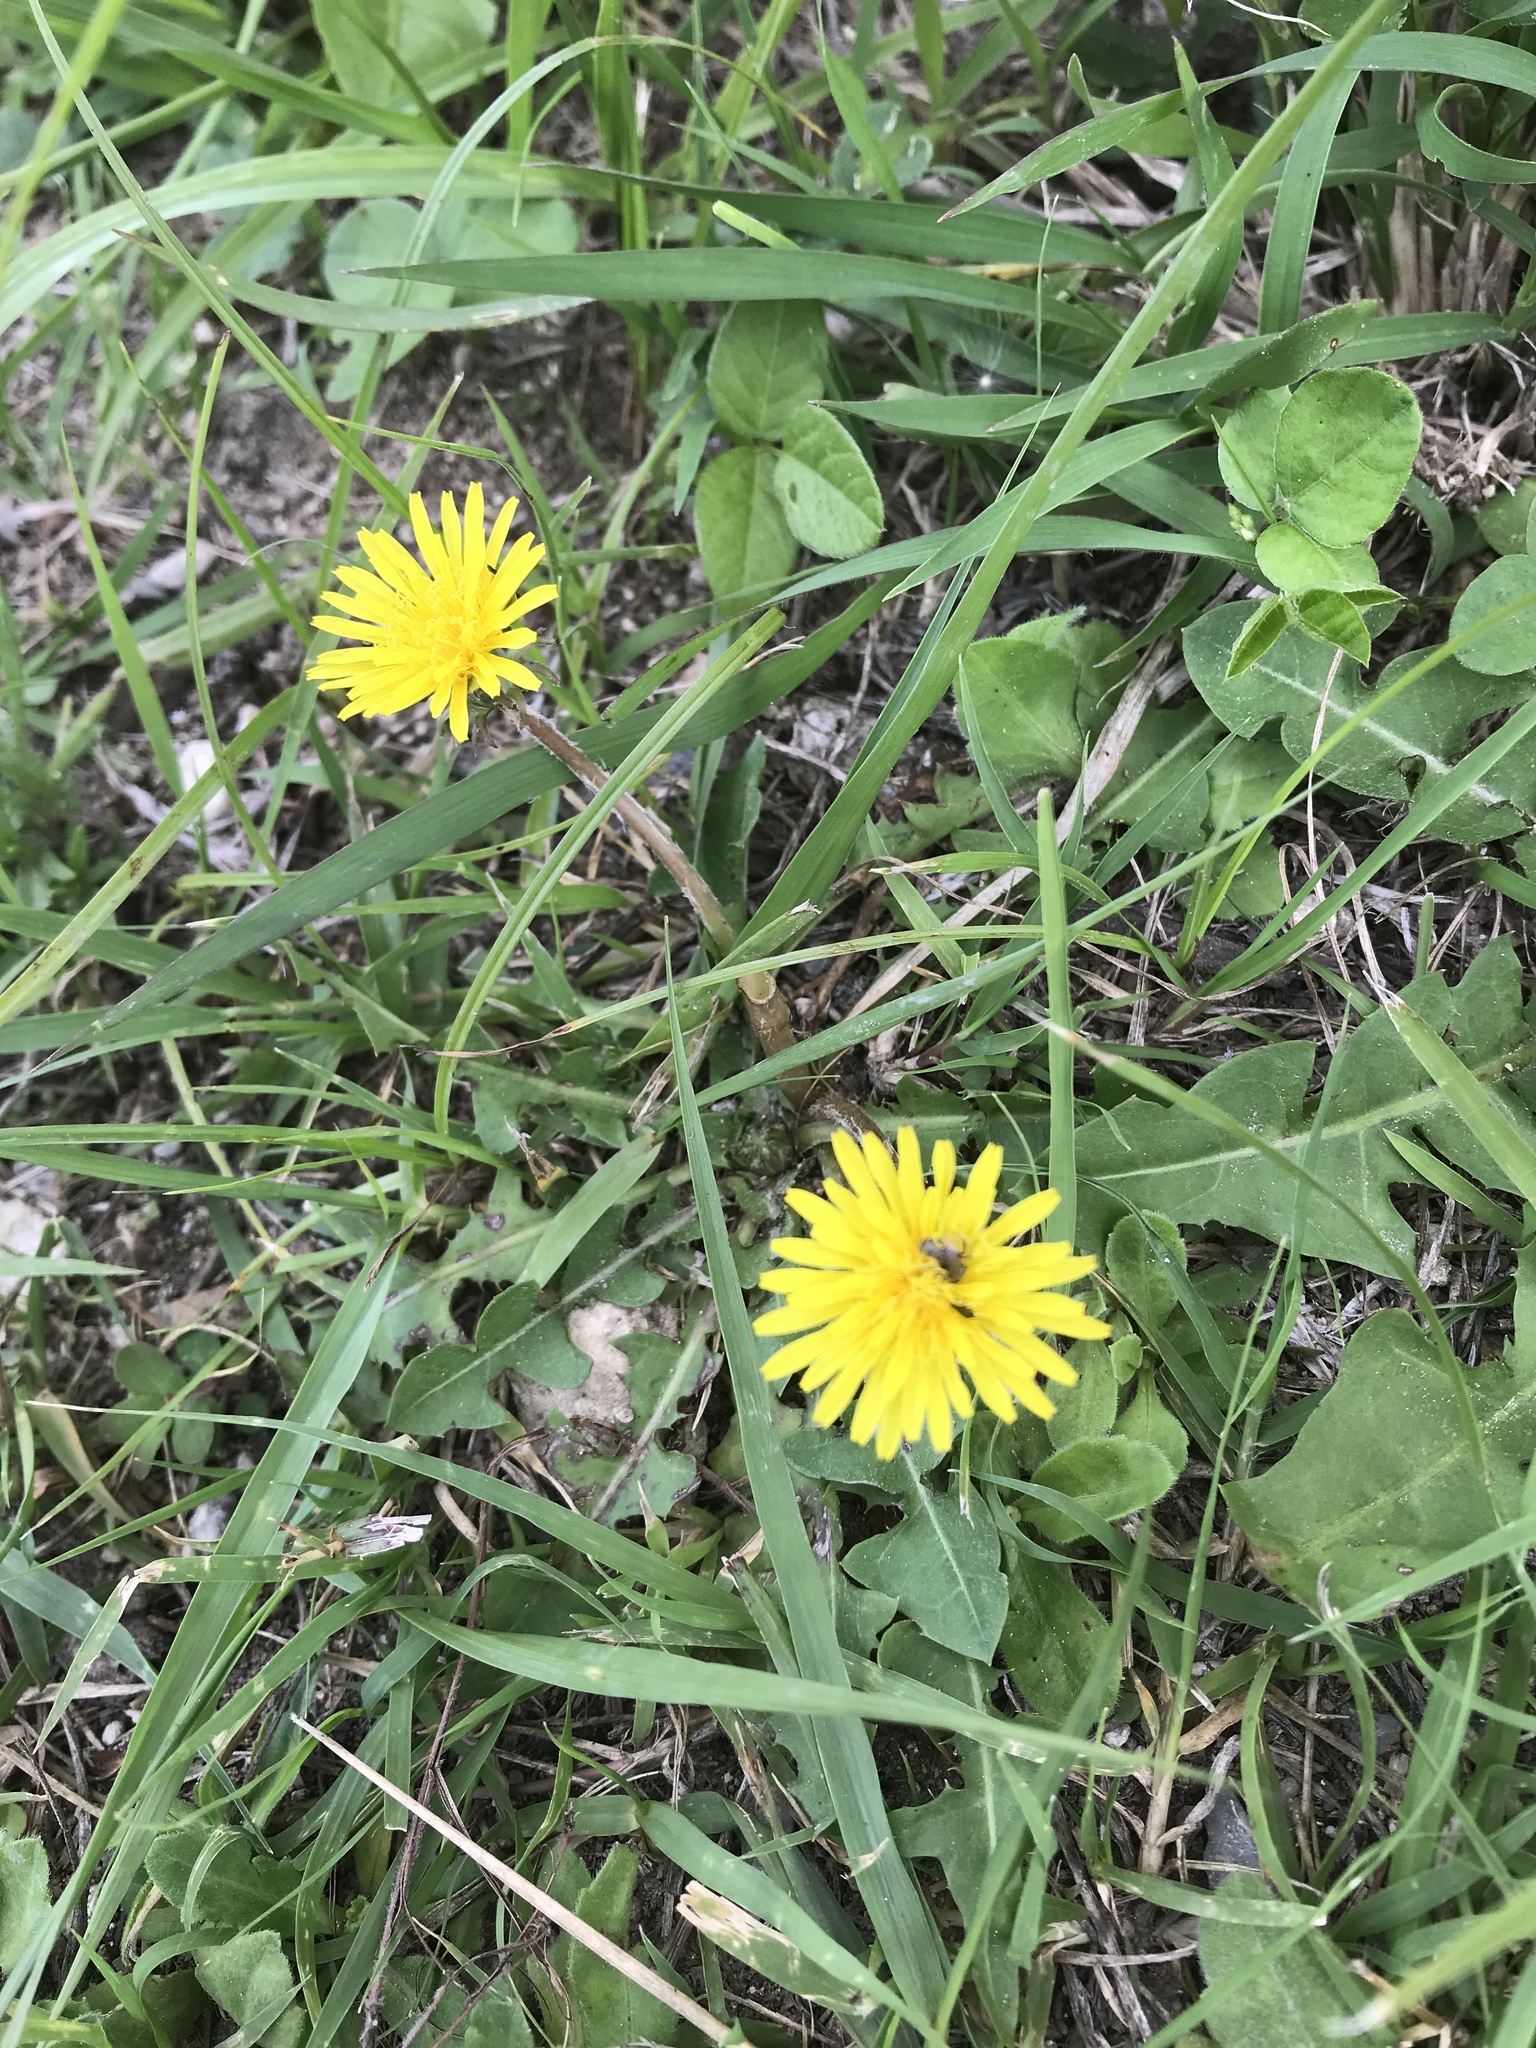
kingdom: Plantae
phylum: Tracheophyta
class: Magnoliopsida
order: Asterales
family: Asteraceae
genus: Taraxacum
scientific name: Taraxacum officinale
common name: Common dandelion
